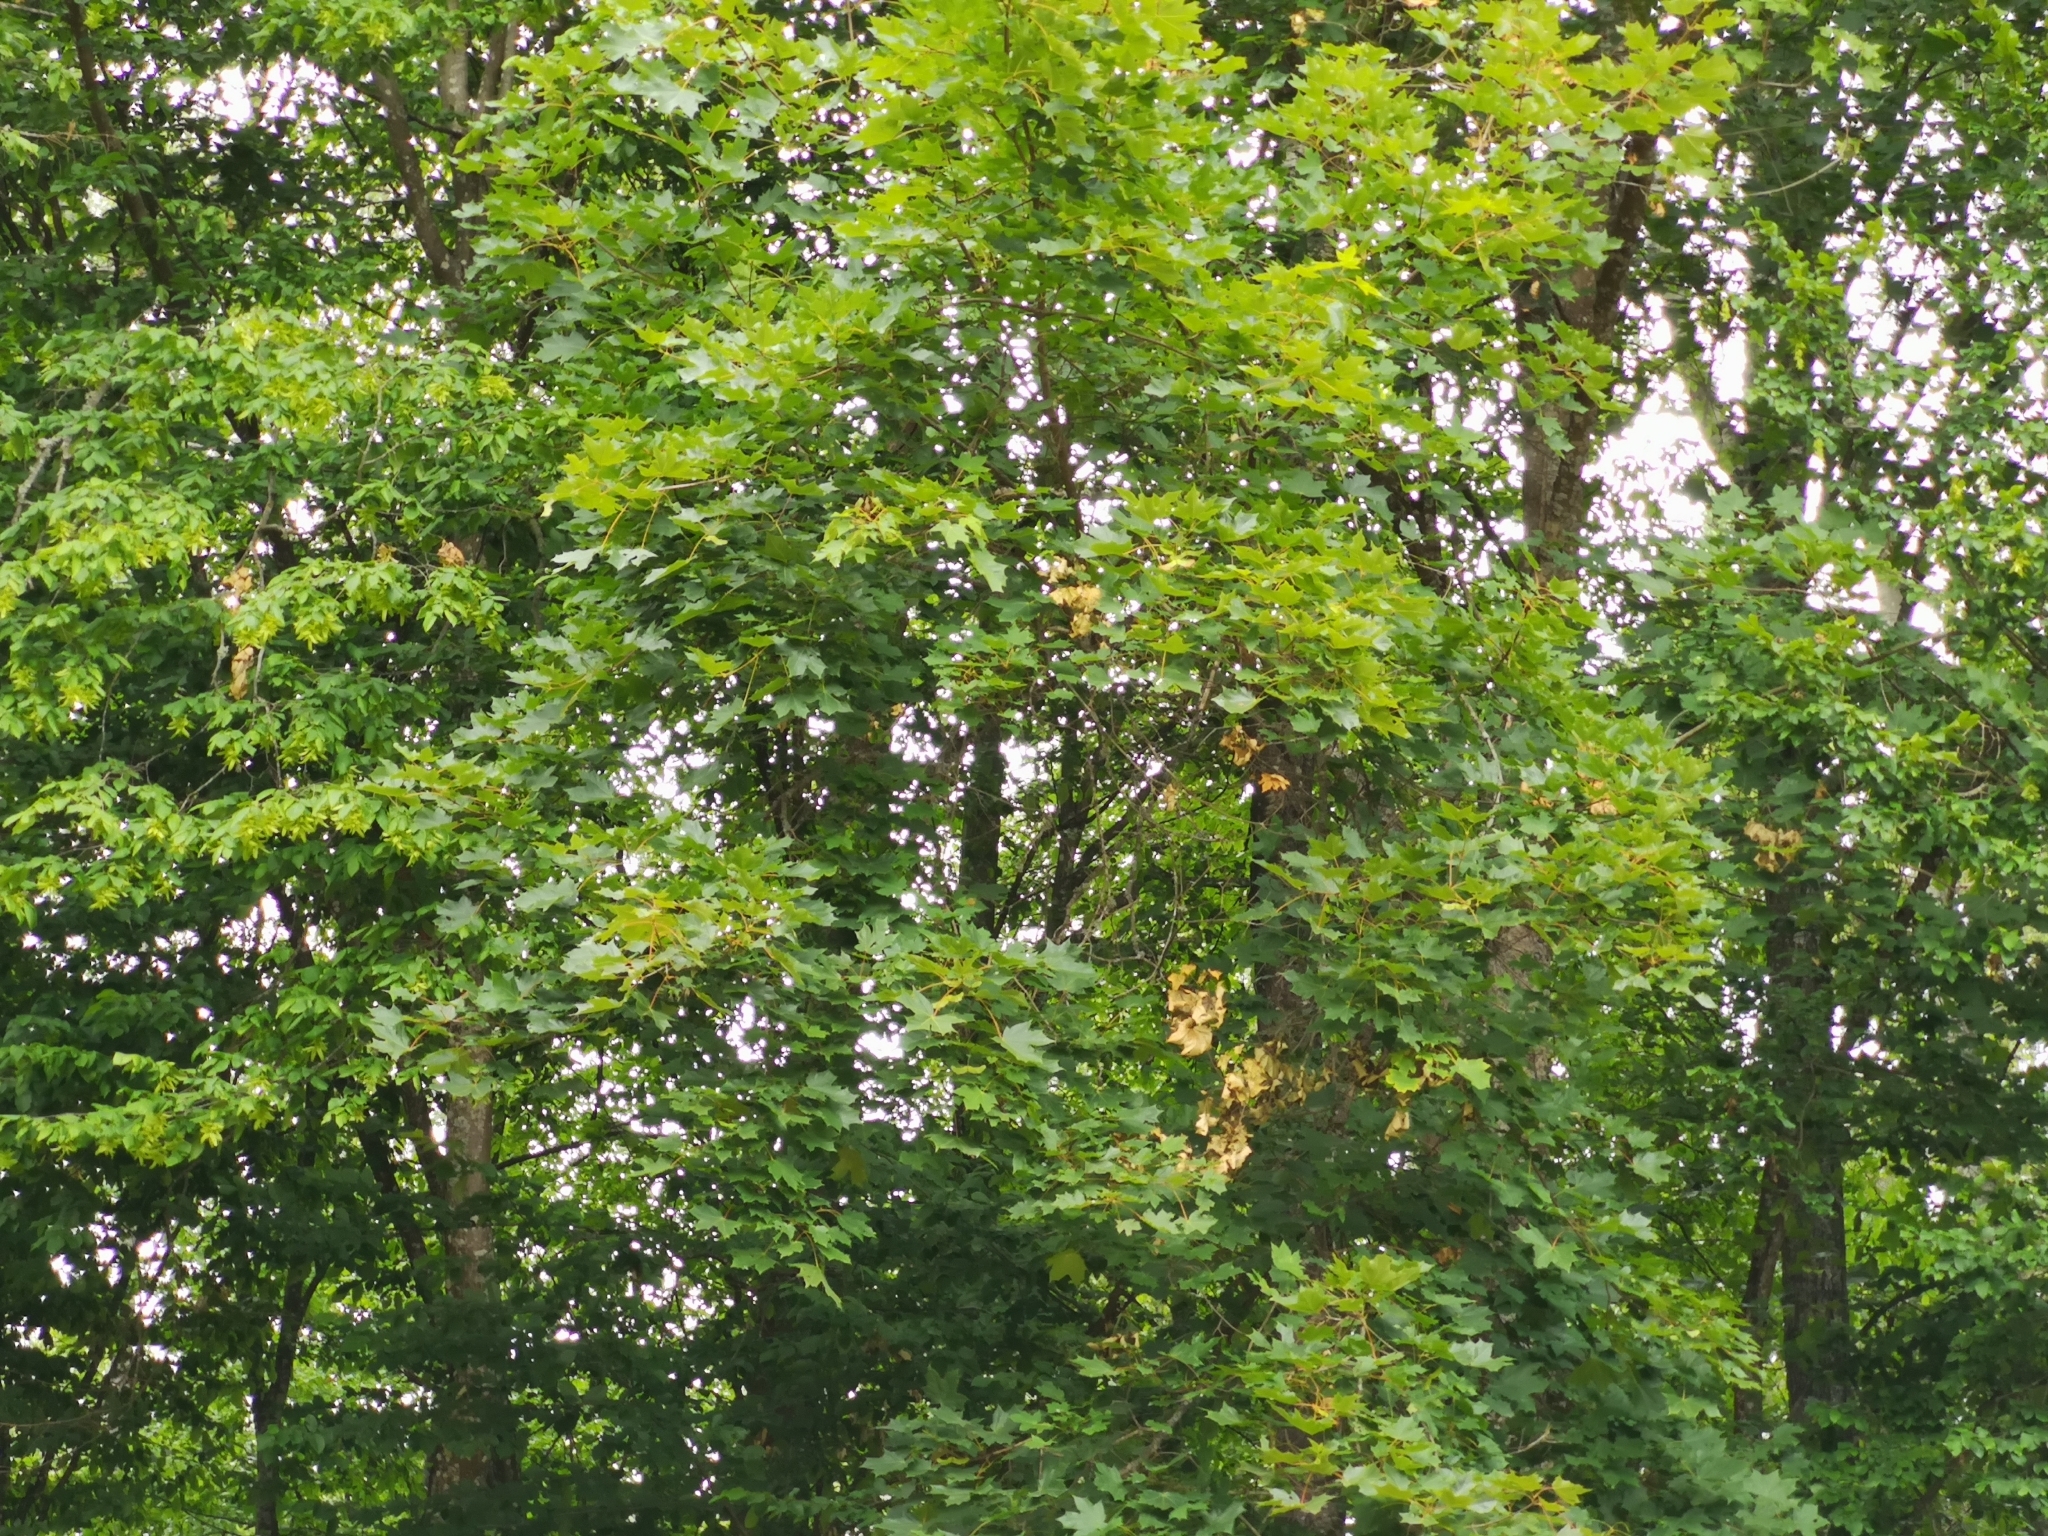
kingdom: Plantae
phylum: Tracheophyta
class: Magnoliopsida
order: Sapindales
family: Sapindaceae
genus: Acer
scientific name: Acer platanoides
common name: Norway maple
